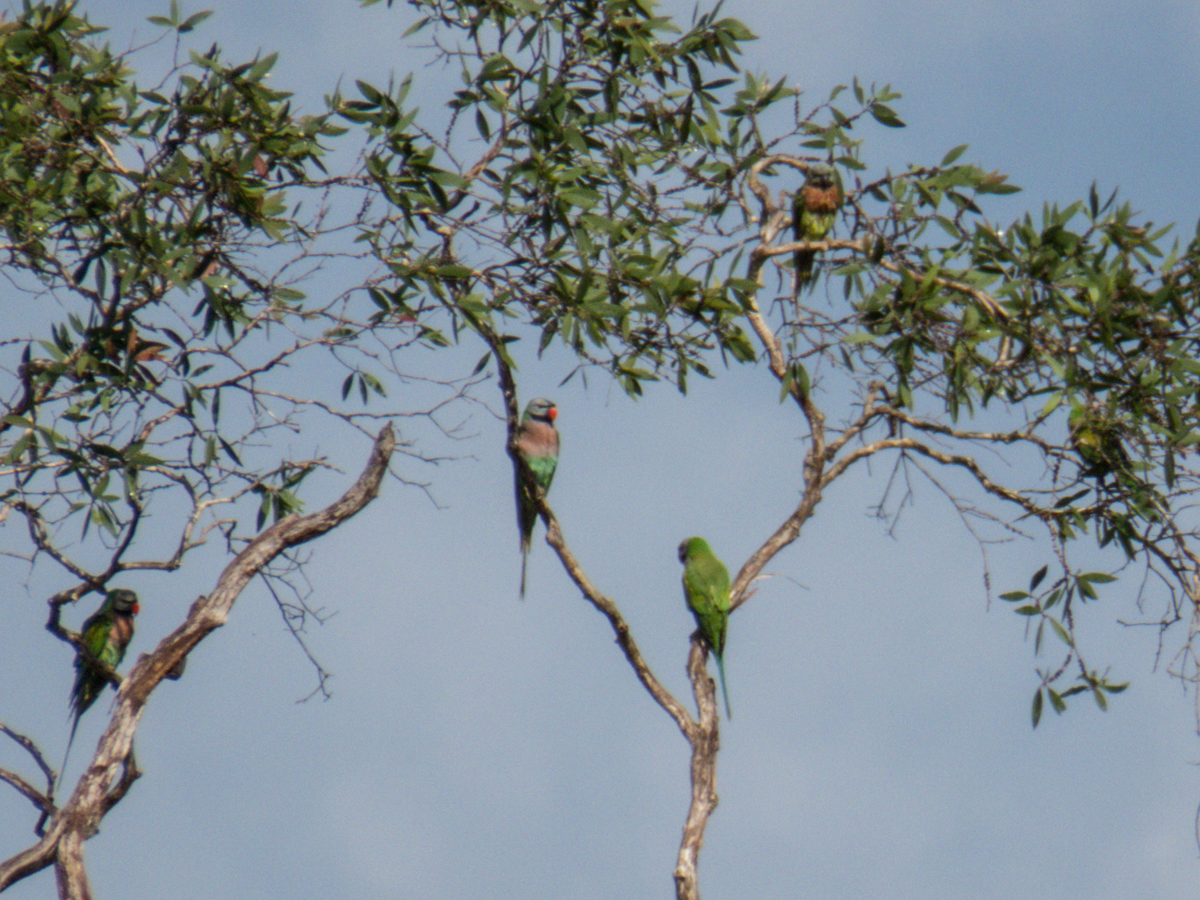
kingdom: Animalia
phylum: Chordata
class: Aves
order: Psittaciformes
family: Psittacidae
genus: Psittacula
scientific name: Psittacula alexandri
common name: Red-breasted parakeet
